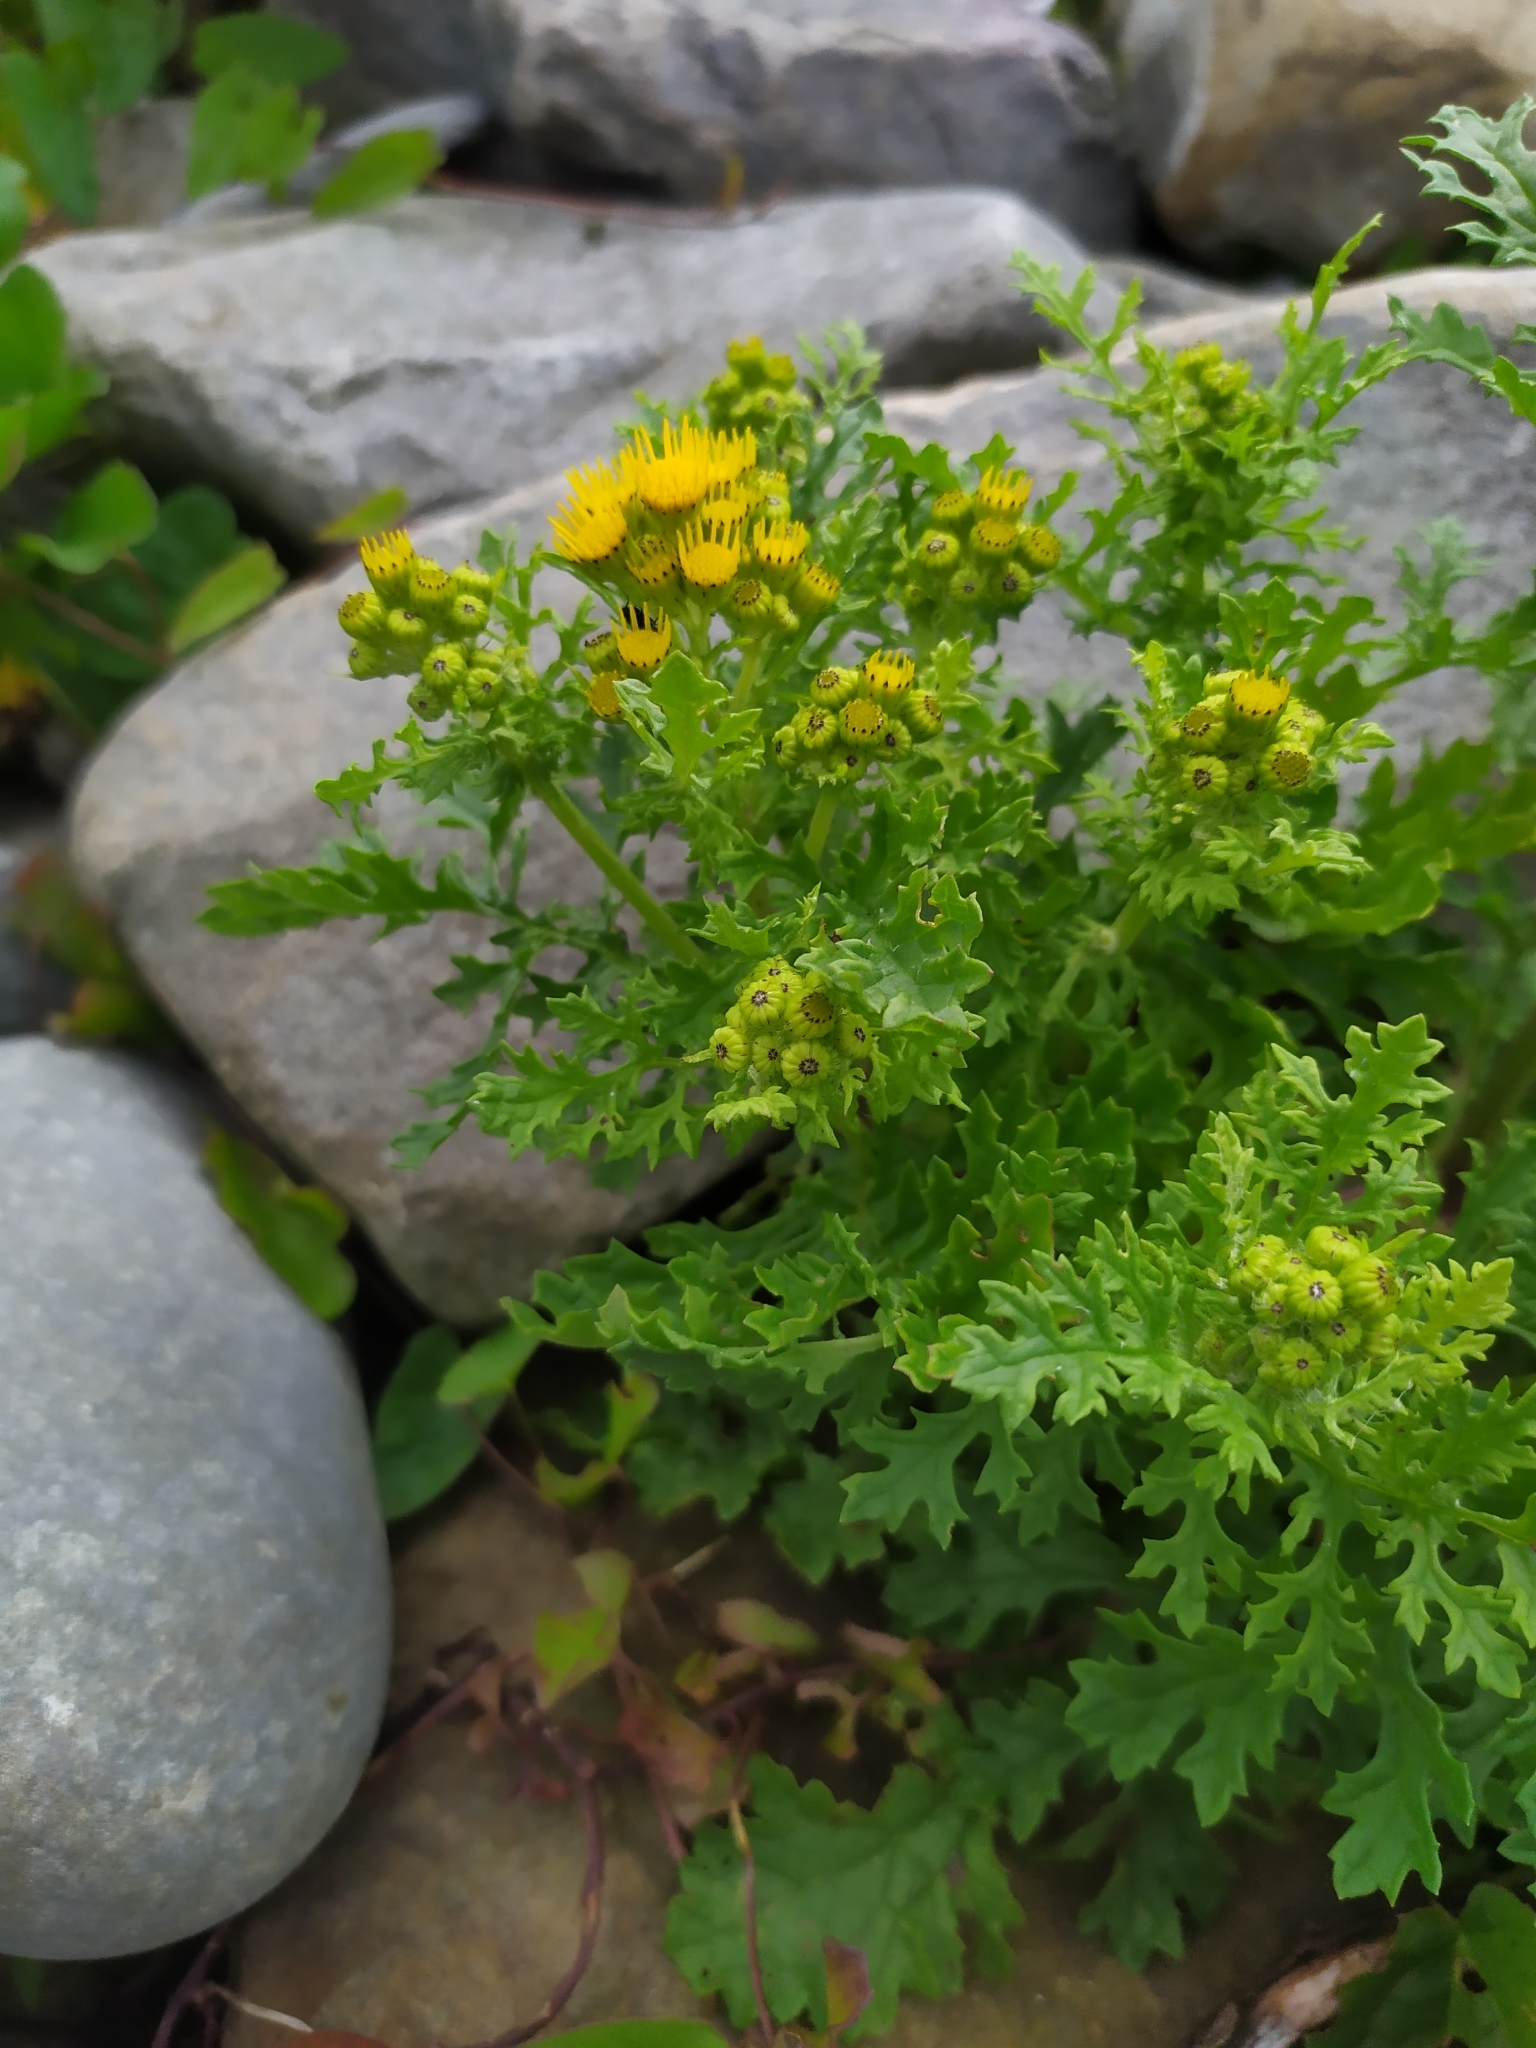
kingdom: Plantae
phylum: Tracheophyta
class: Magnoliopsida
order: Asterales
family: Asteraceae
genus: Jacobaea
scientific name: Jacobaea vulgaris
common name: Stinking willie
